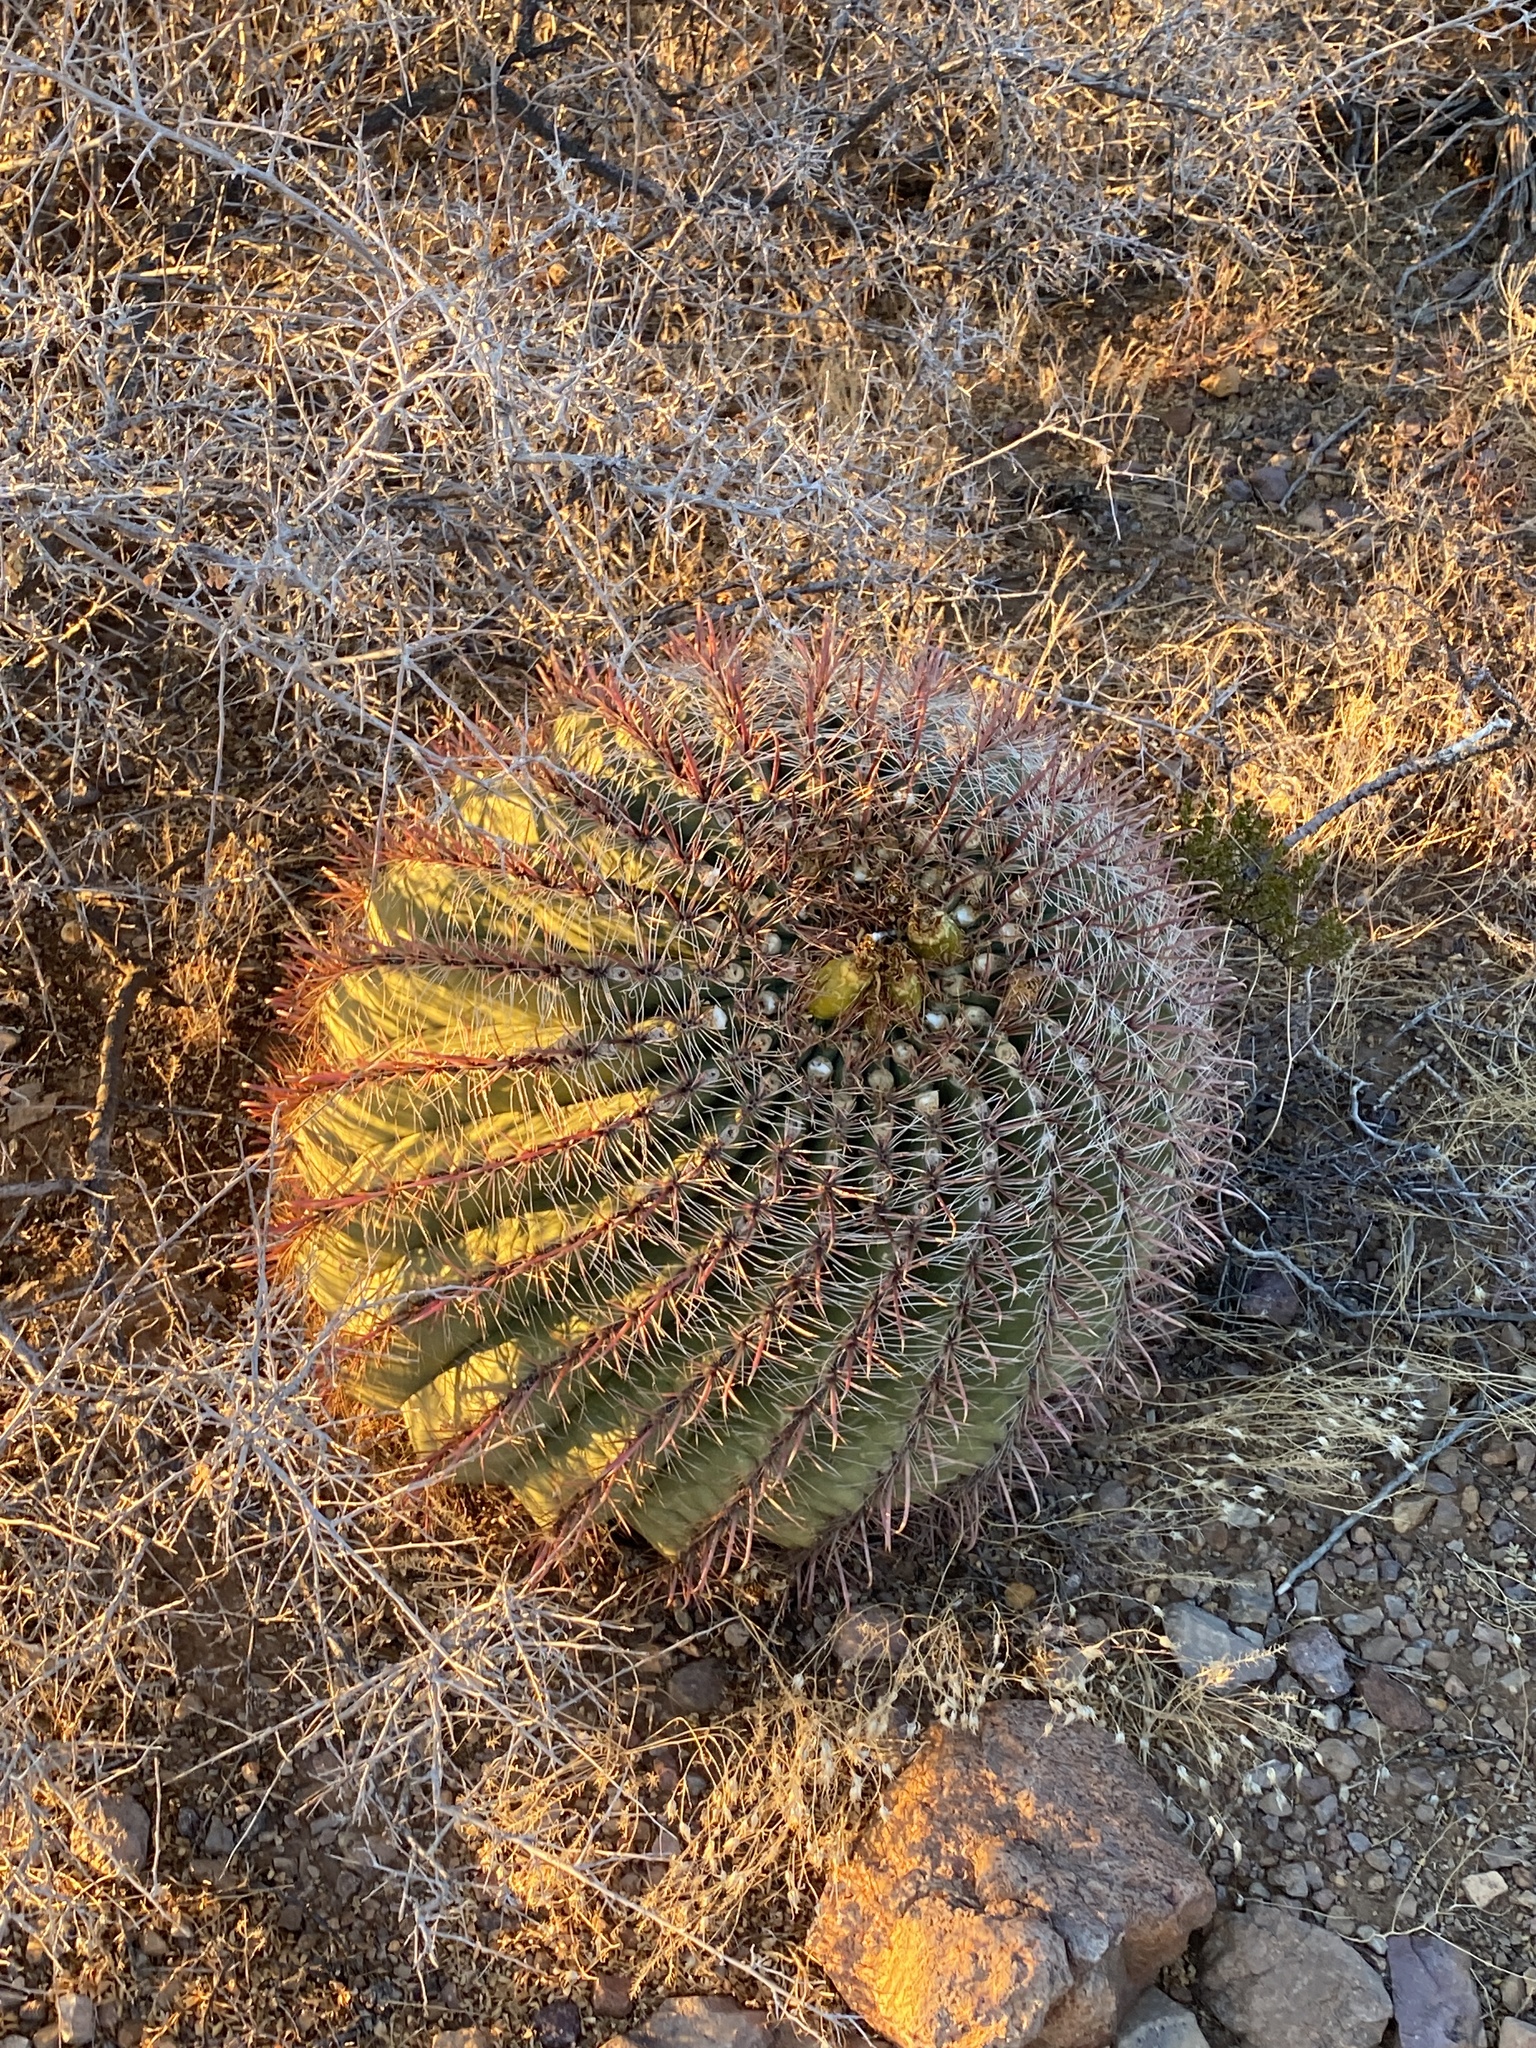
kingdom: Plantae
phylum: Tracheophyta
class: Magnoliopsida
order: Caryophyllales
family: Cactaceae
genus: Ferocactus
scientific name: Ferocactus wislizeni
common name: Candy barrel cactus
